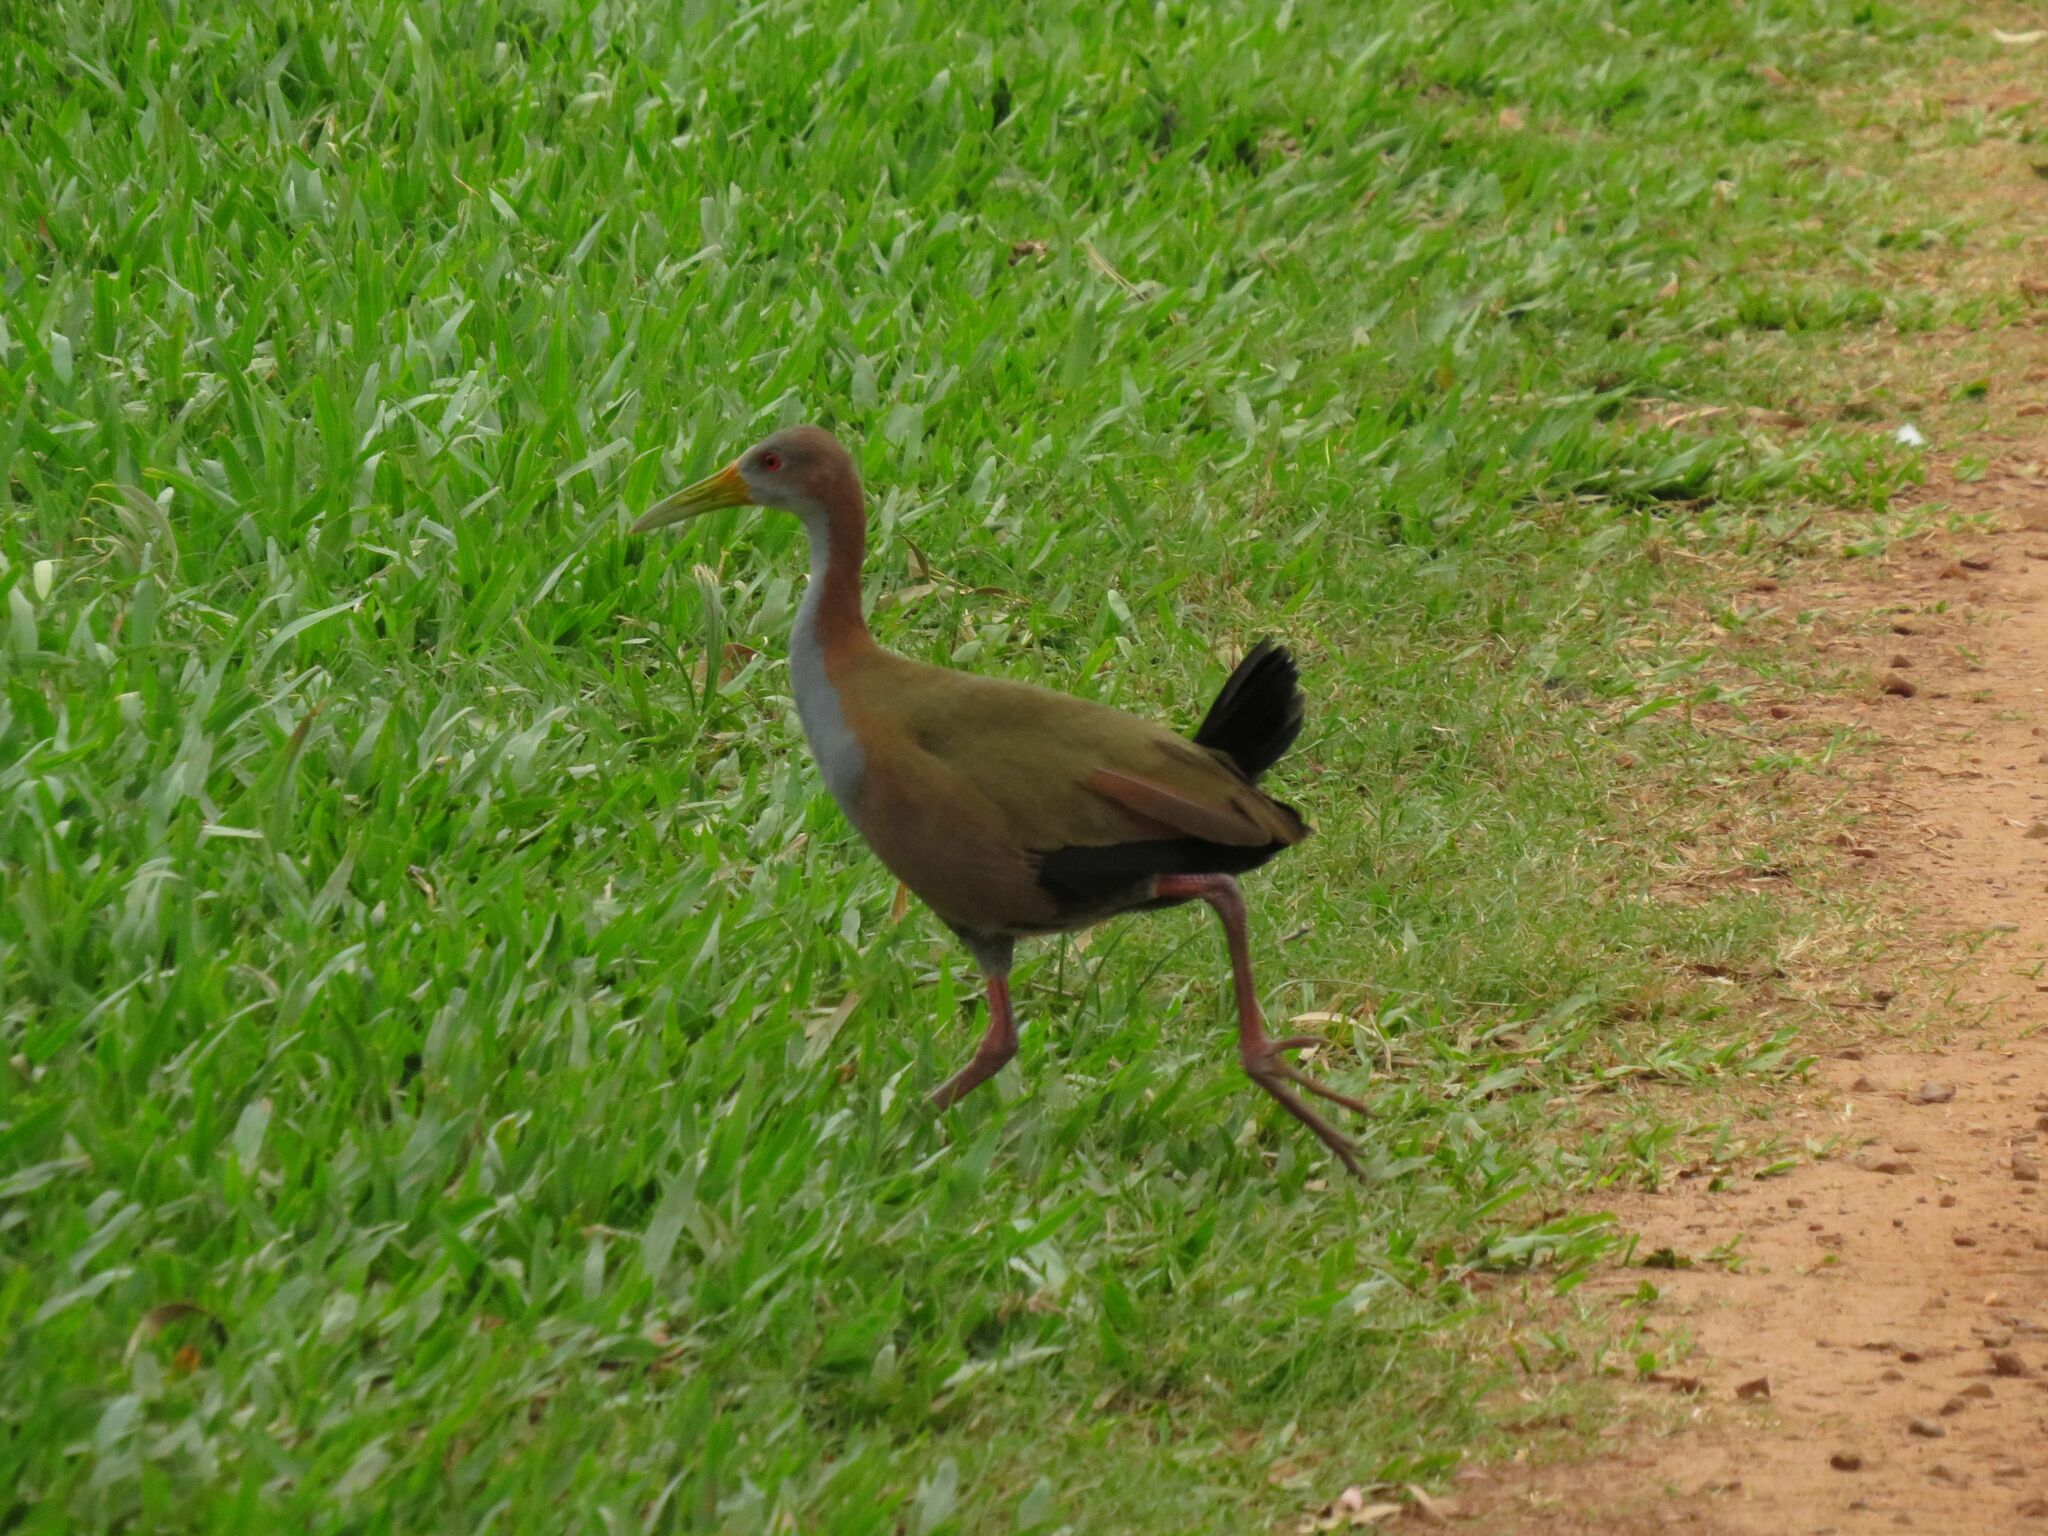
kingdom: Animalia
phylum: Chordata
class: Aves
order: Gruiformes
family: Rallidae
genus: Aramides
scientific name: Aramides ypecaha
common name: Giant wood rail
